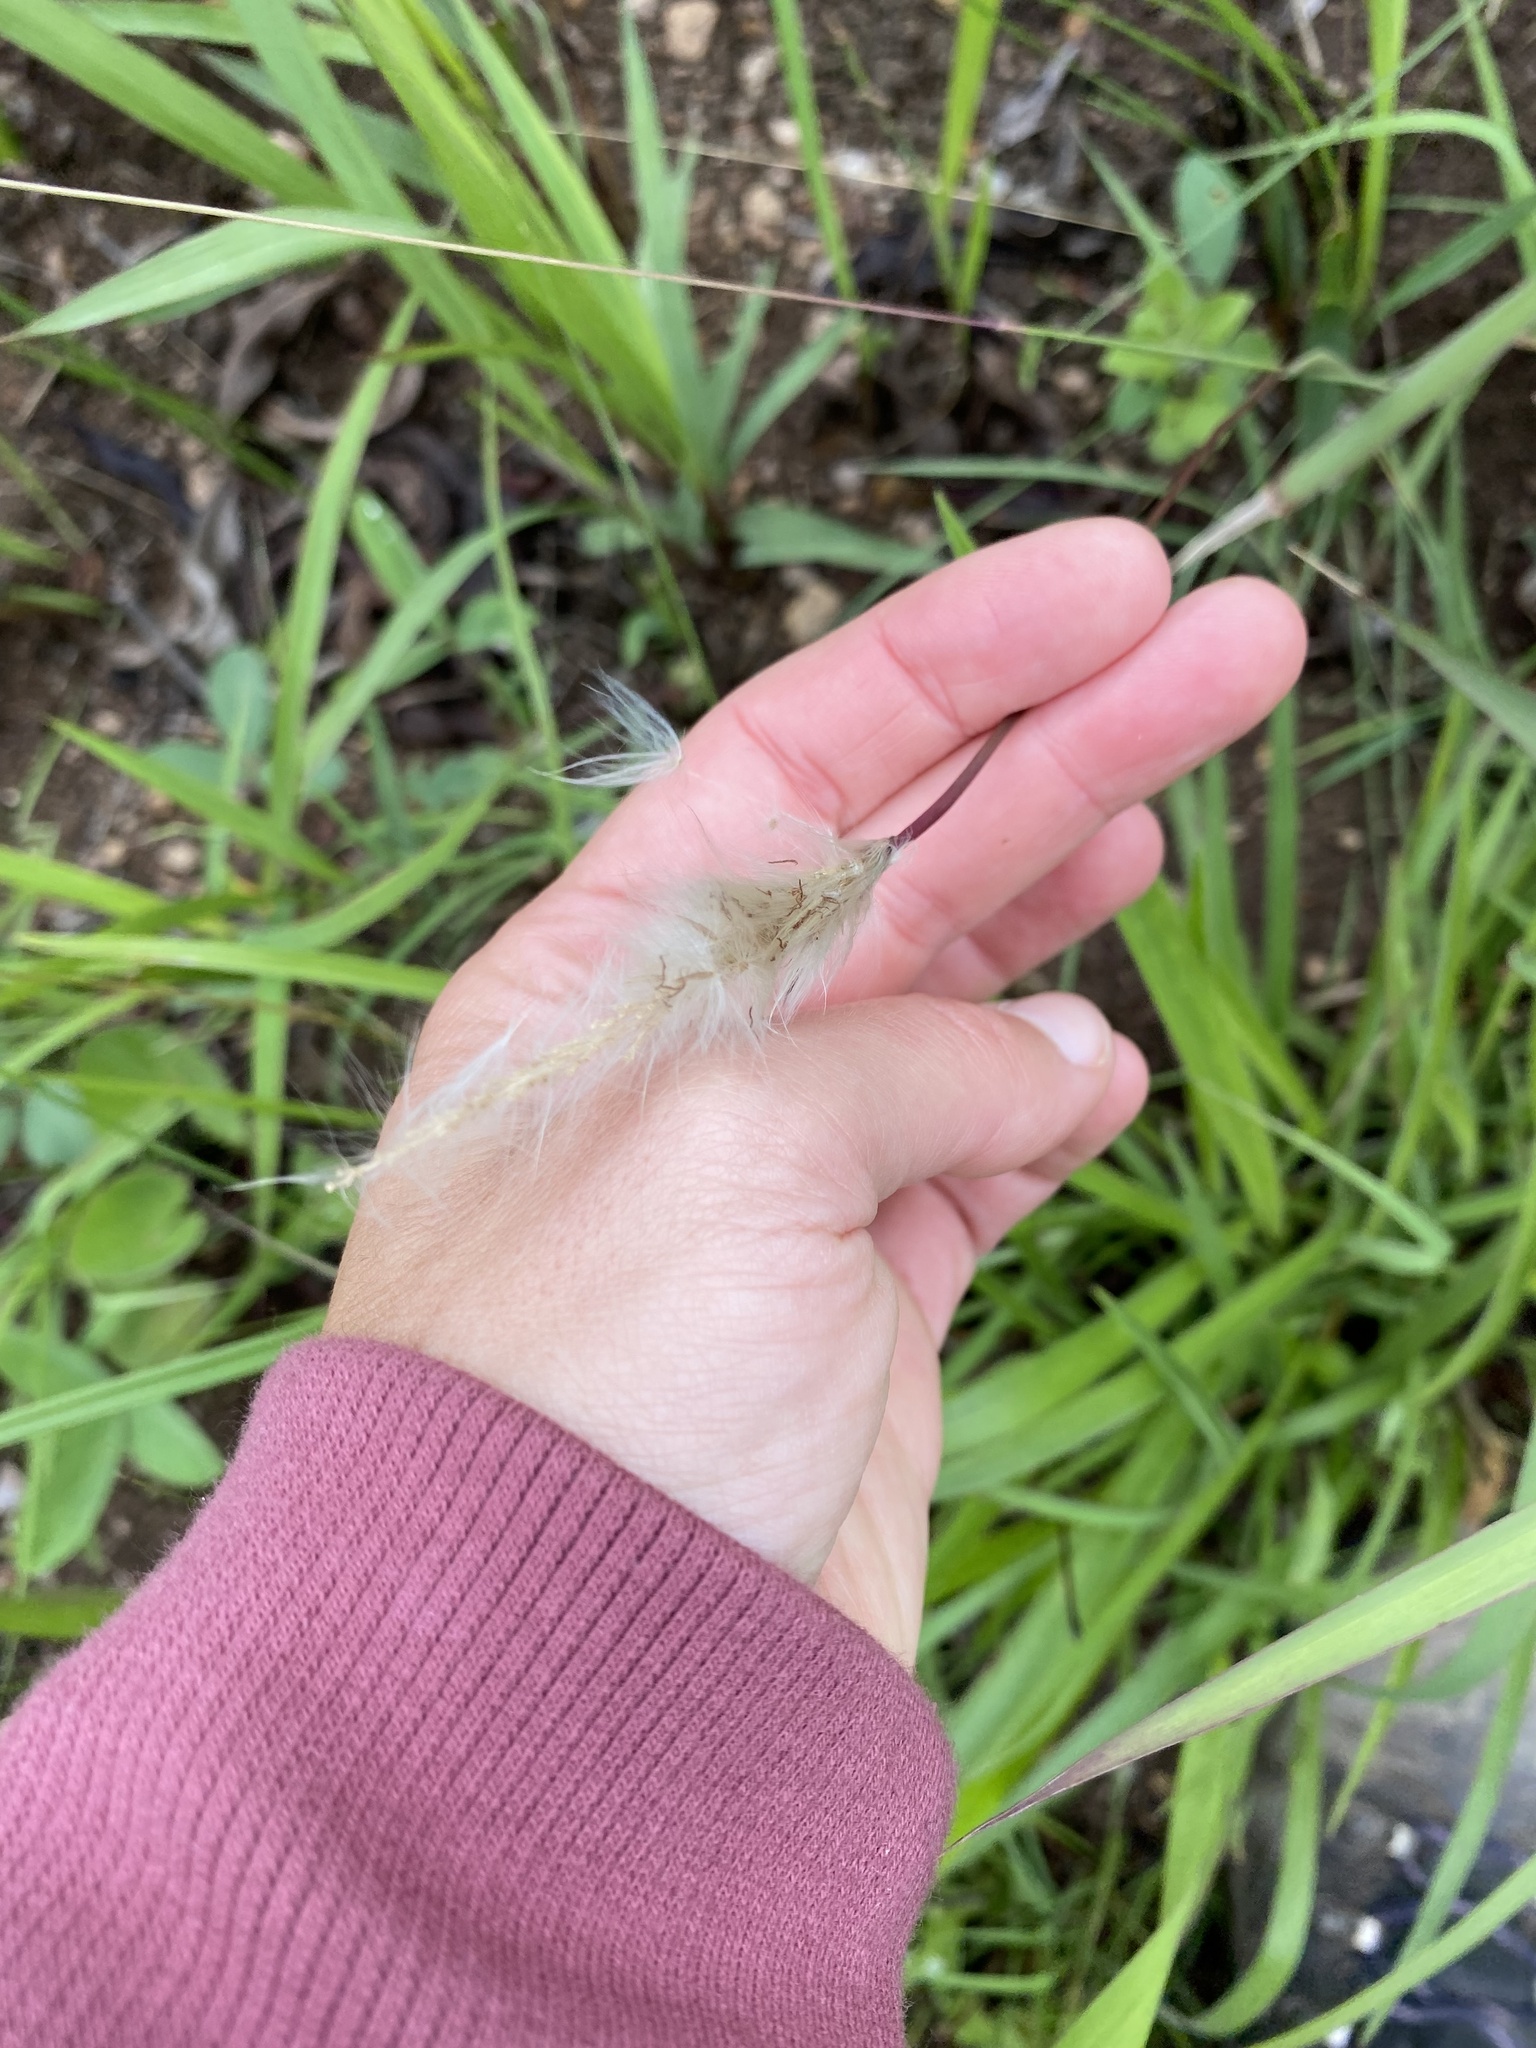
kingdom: Plantae
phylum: Tracheophyta
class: Liliopsida
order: Poales
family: Poaceae
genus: Imperata
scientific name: Imperata cylindrica
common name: Cogongrass
